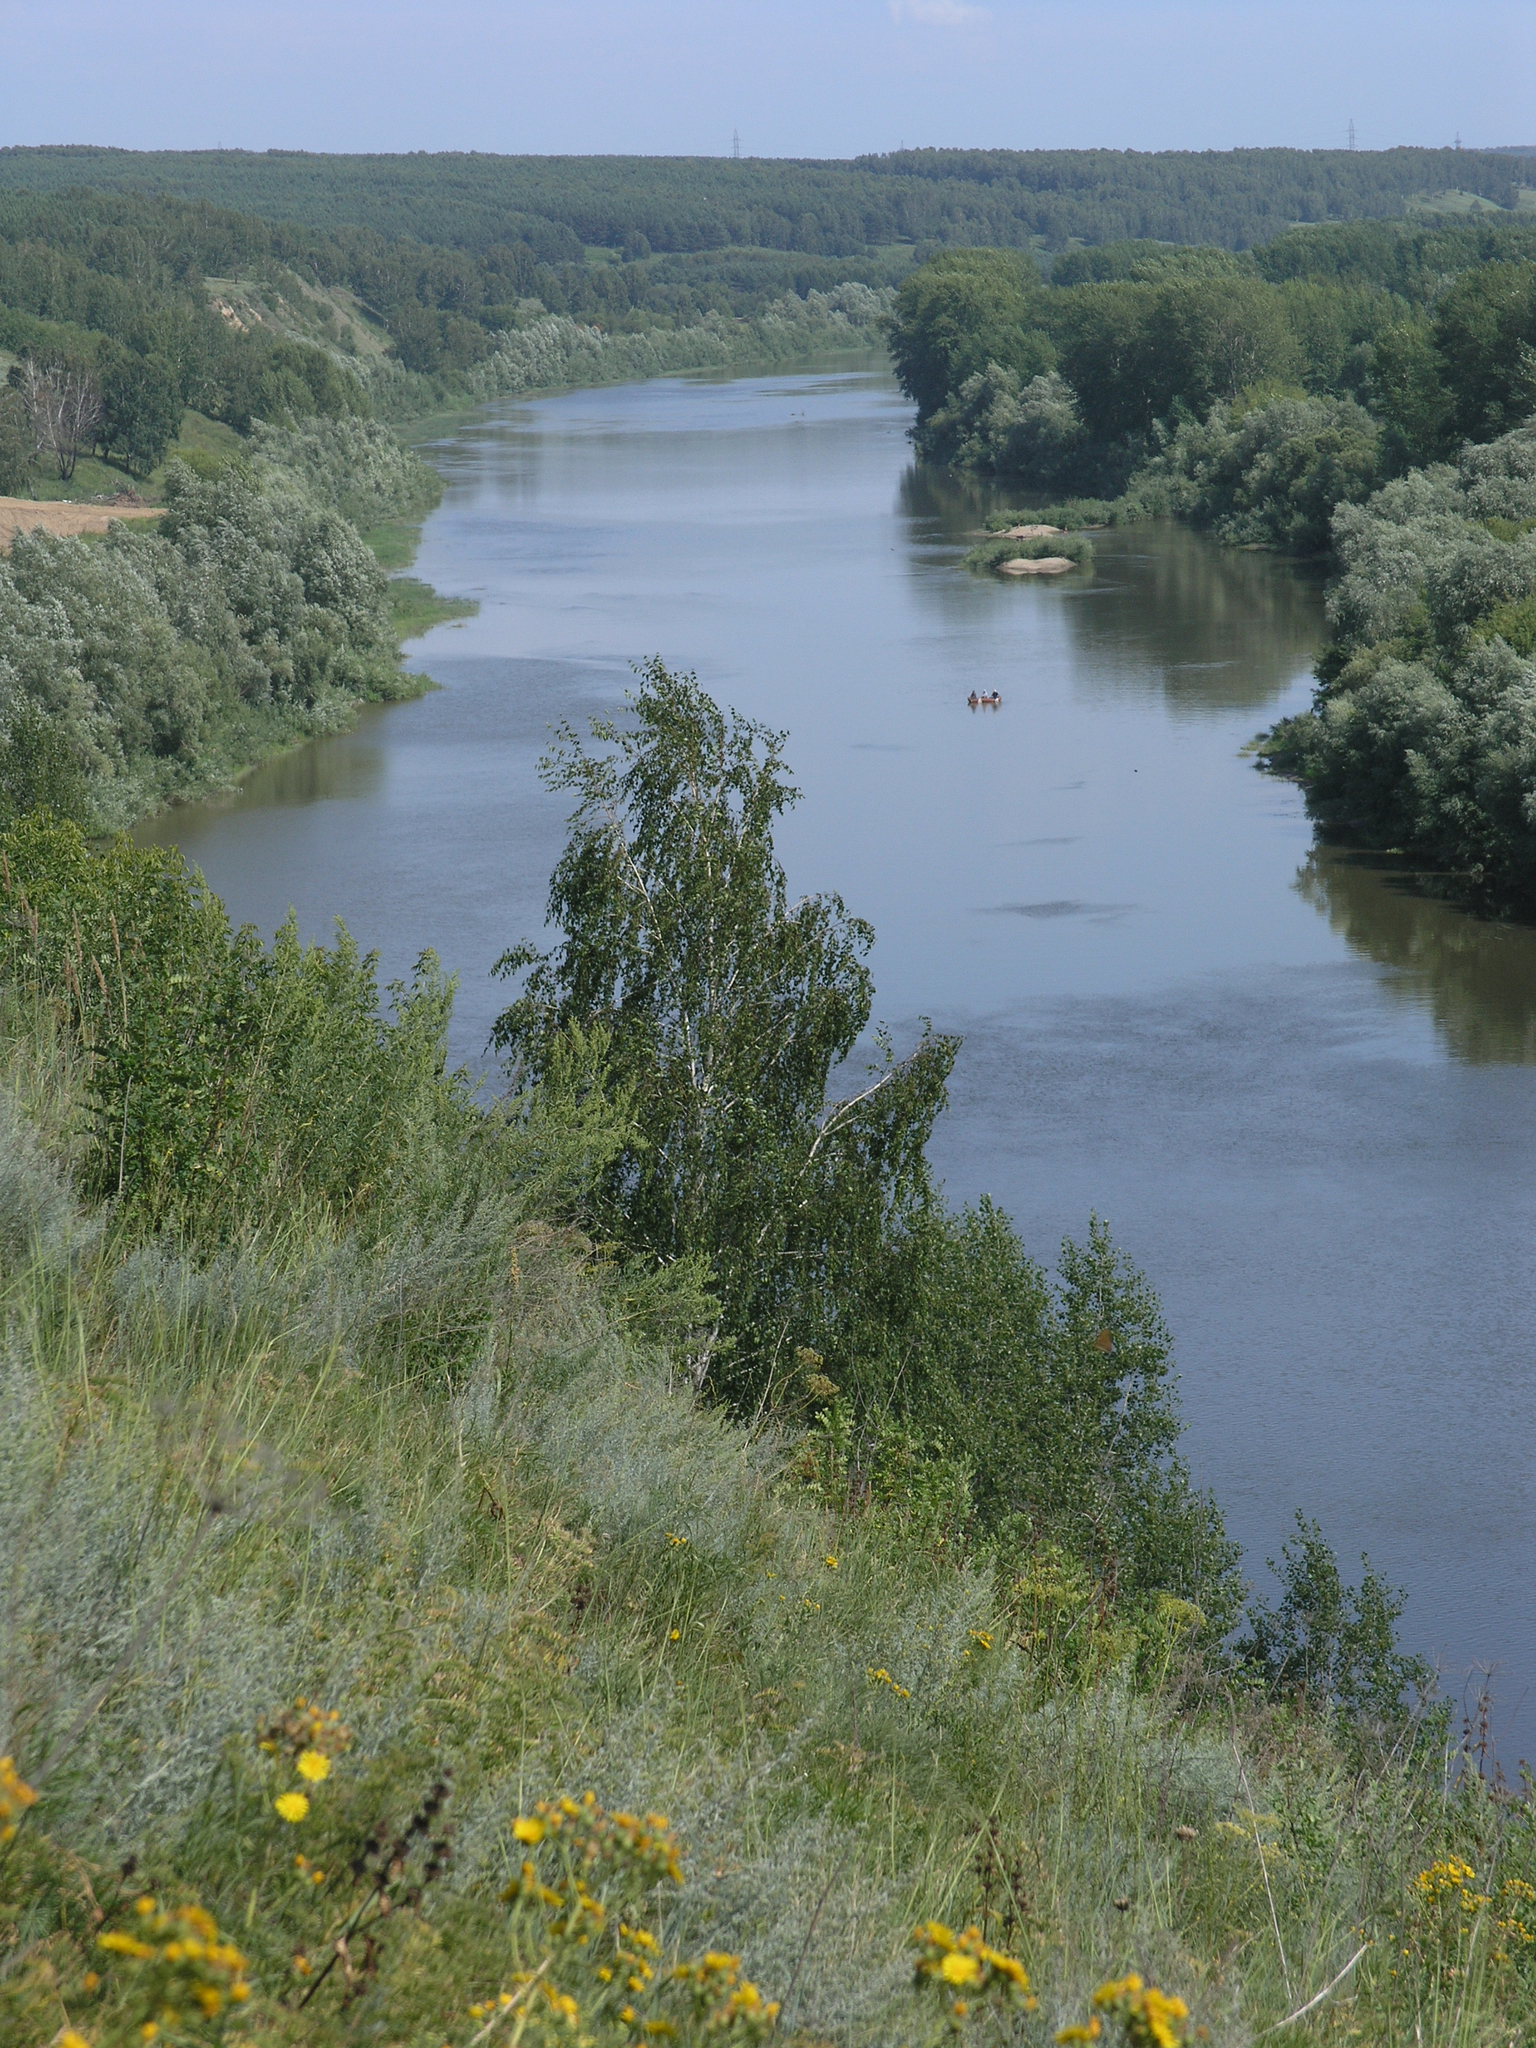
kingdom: Plantae
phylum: Tracheophyta
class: Magnoliopsida
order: Asterales
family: Asteraceae
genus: Artemisia
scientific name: Artemisia dracunculus
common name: Tarragon
